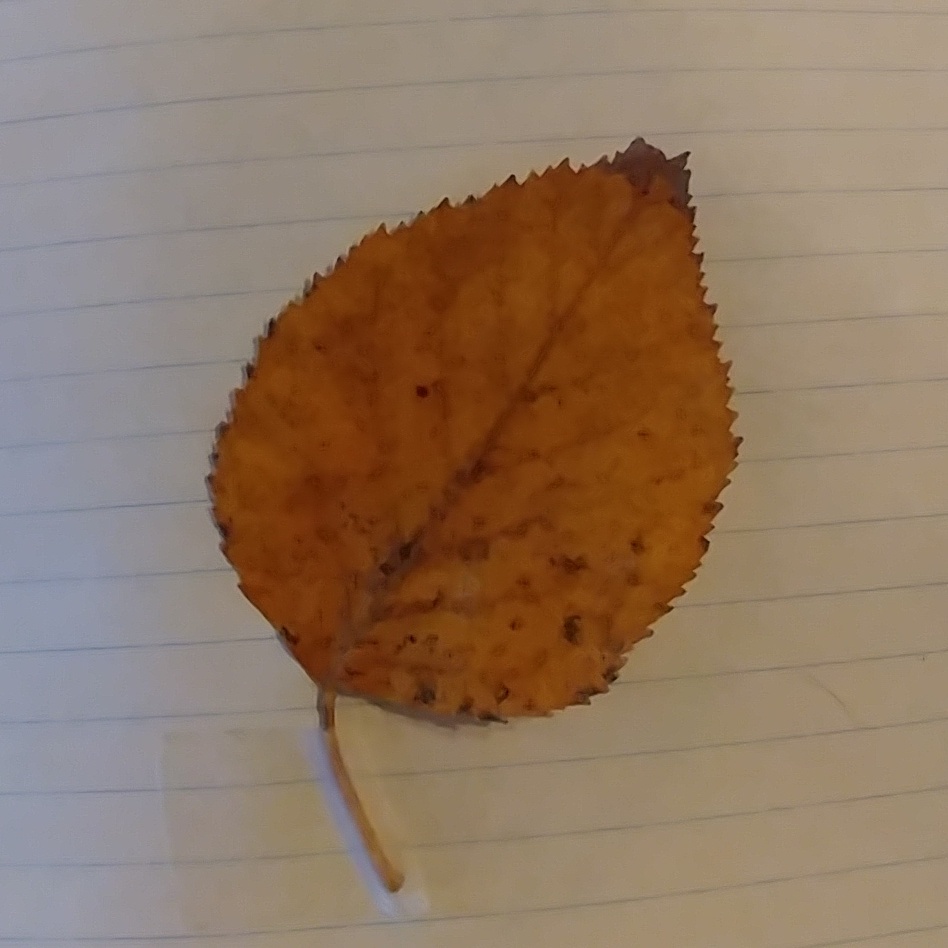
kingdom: Plantae
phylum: Tracheophyta
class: Magnoliopsida
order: Fagales
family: Betulaceae
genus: Betula
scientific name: Betula papyrifera
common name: Paper birch
